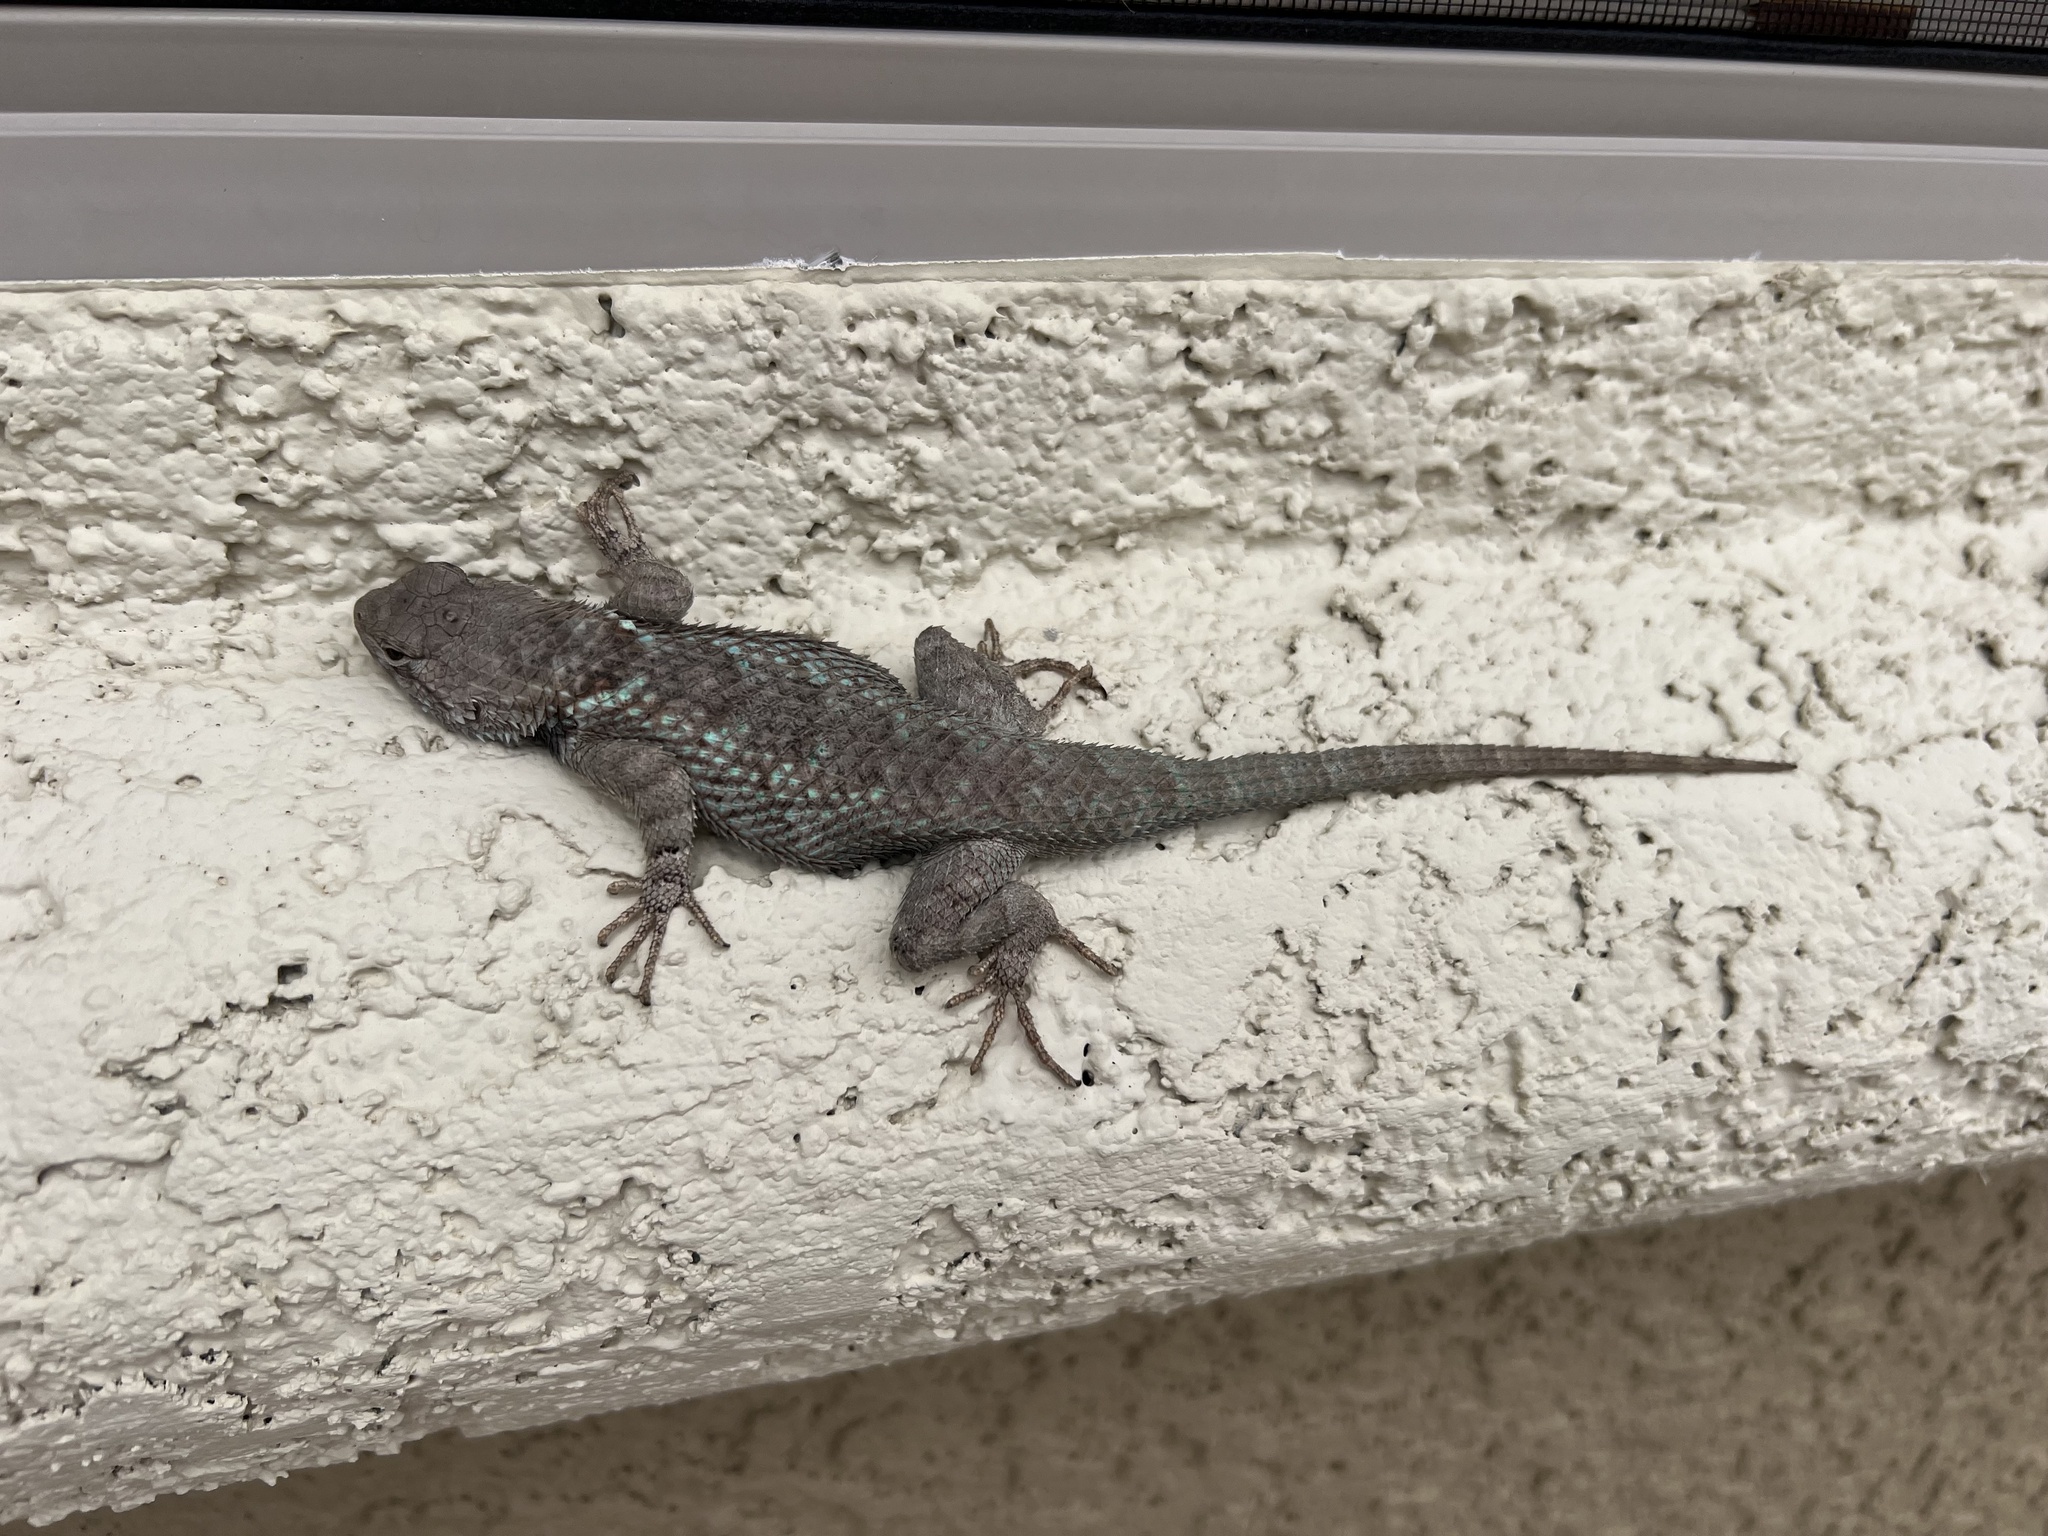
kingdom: Animalia
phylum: Chordata
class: Squamata
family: Phrynosomatidae
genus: Sceloporus
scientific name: Sceloporus clarkii
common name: Clark's spiny lizard
